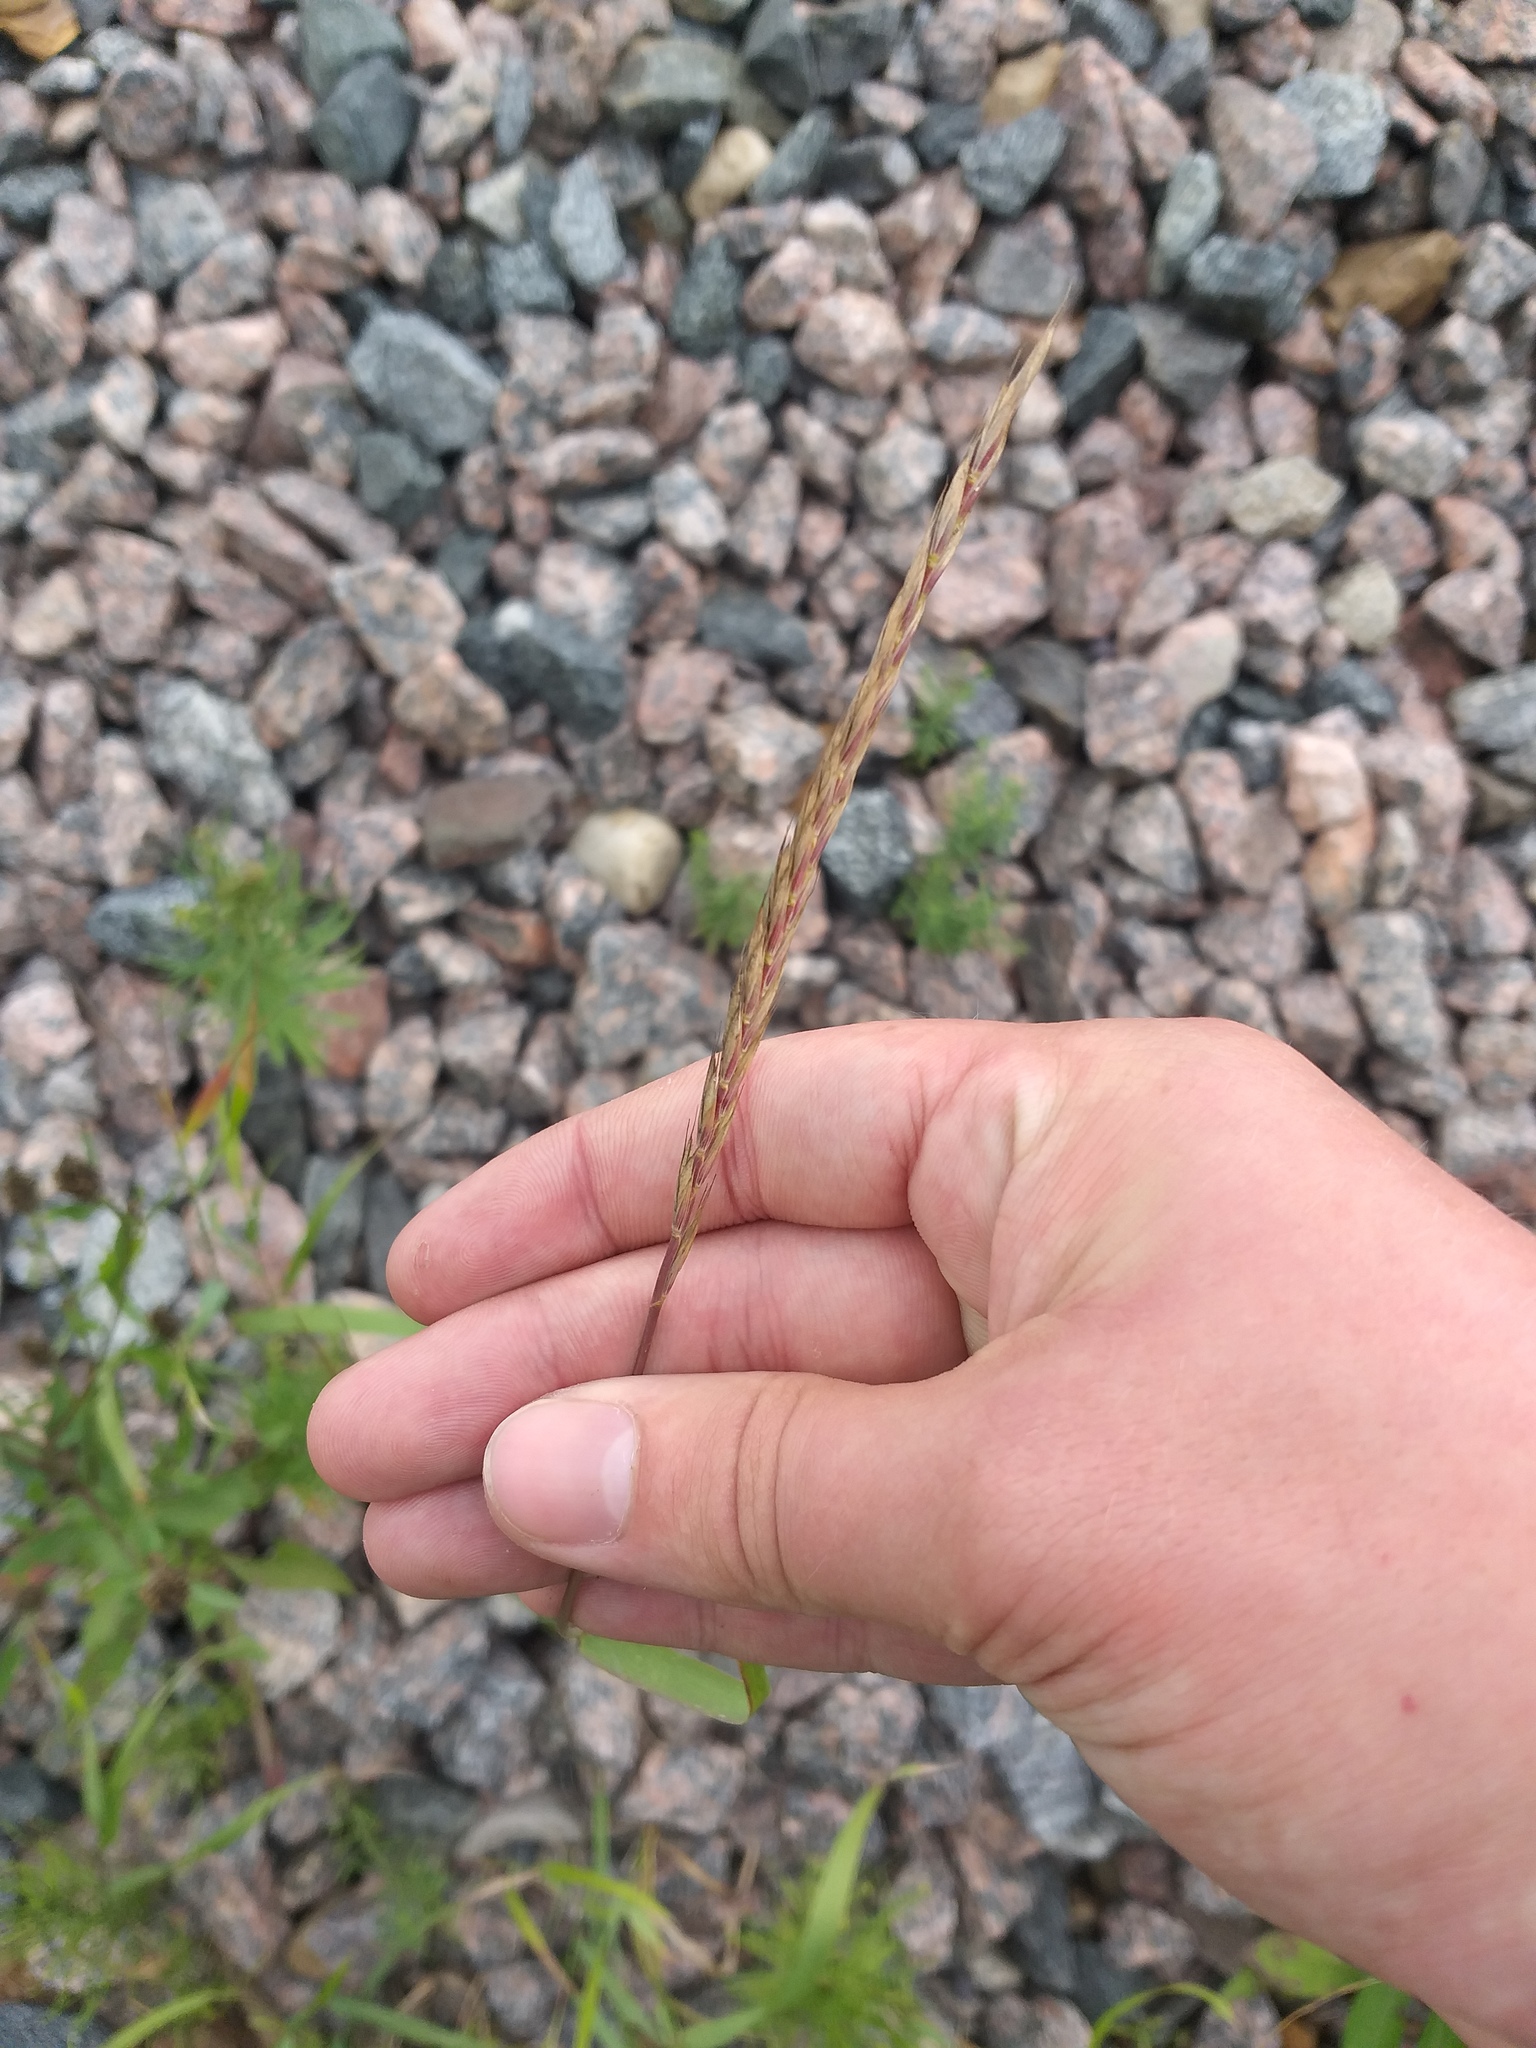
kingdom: Plantae
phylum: Tracheophyta
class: Liliopsida
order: Poales
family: Poaceae
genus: Elymus
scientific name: Elymus repens
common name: Quackgrass
